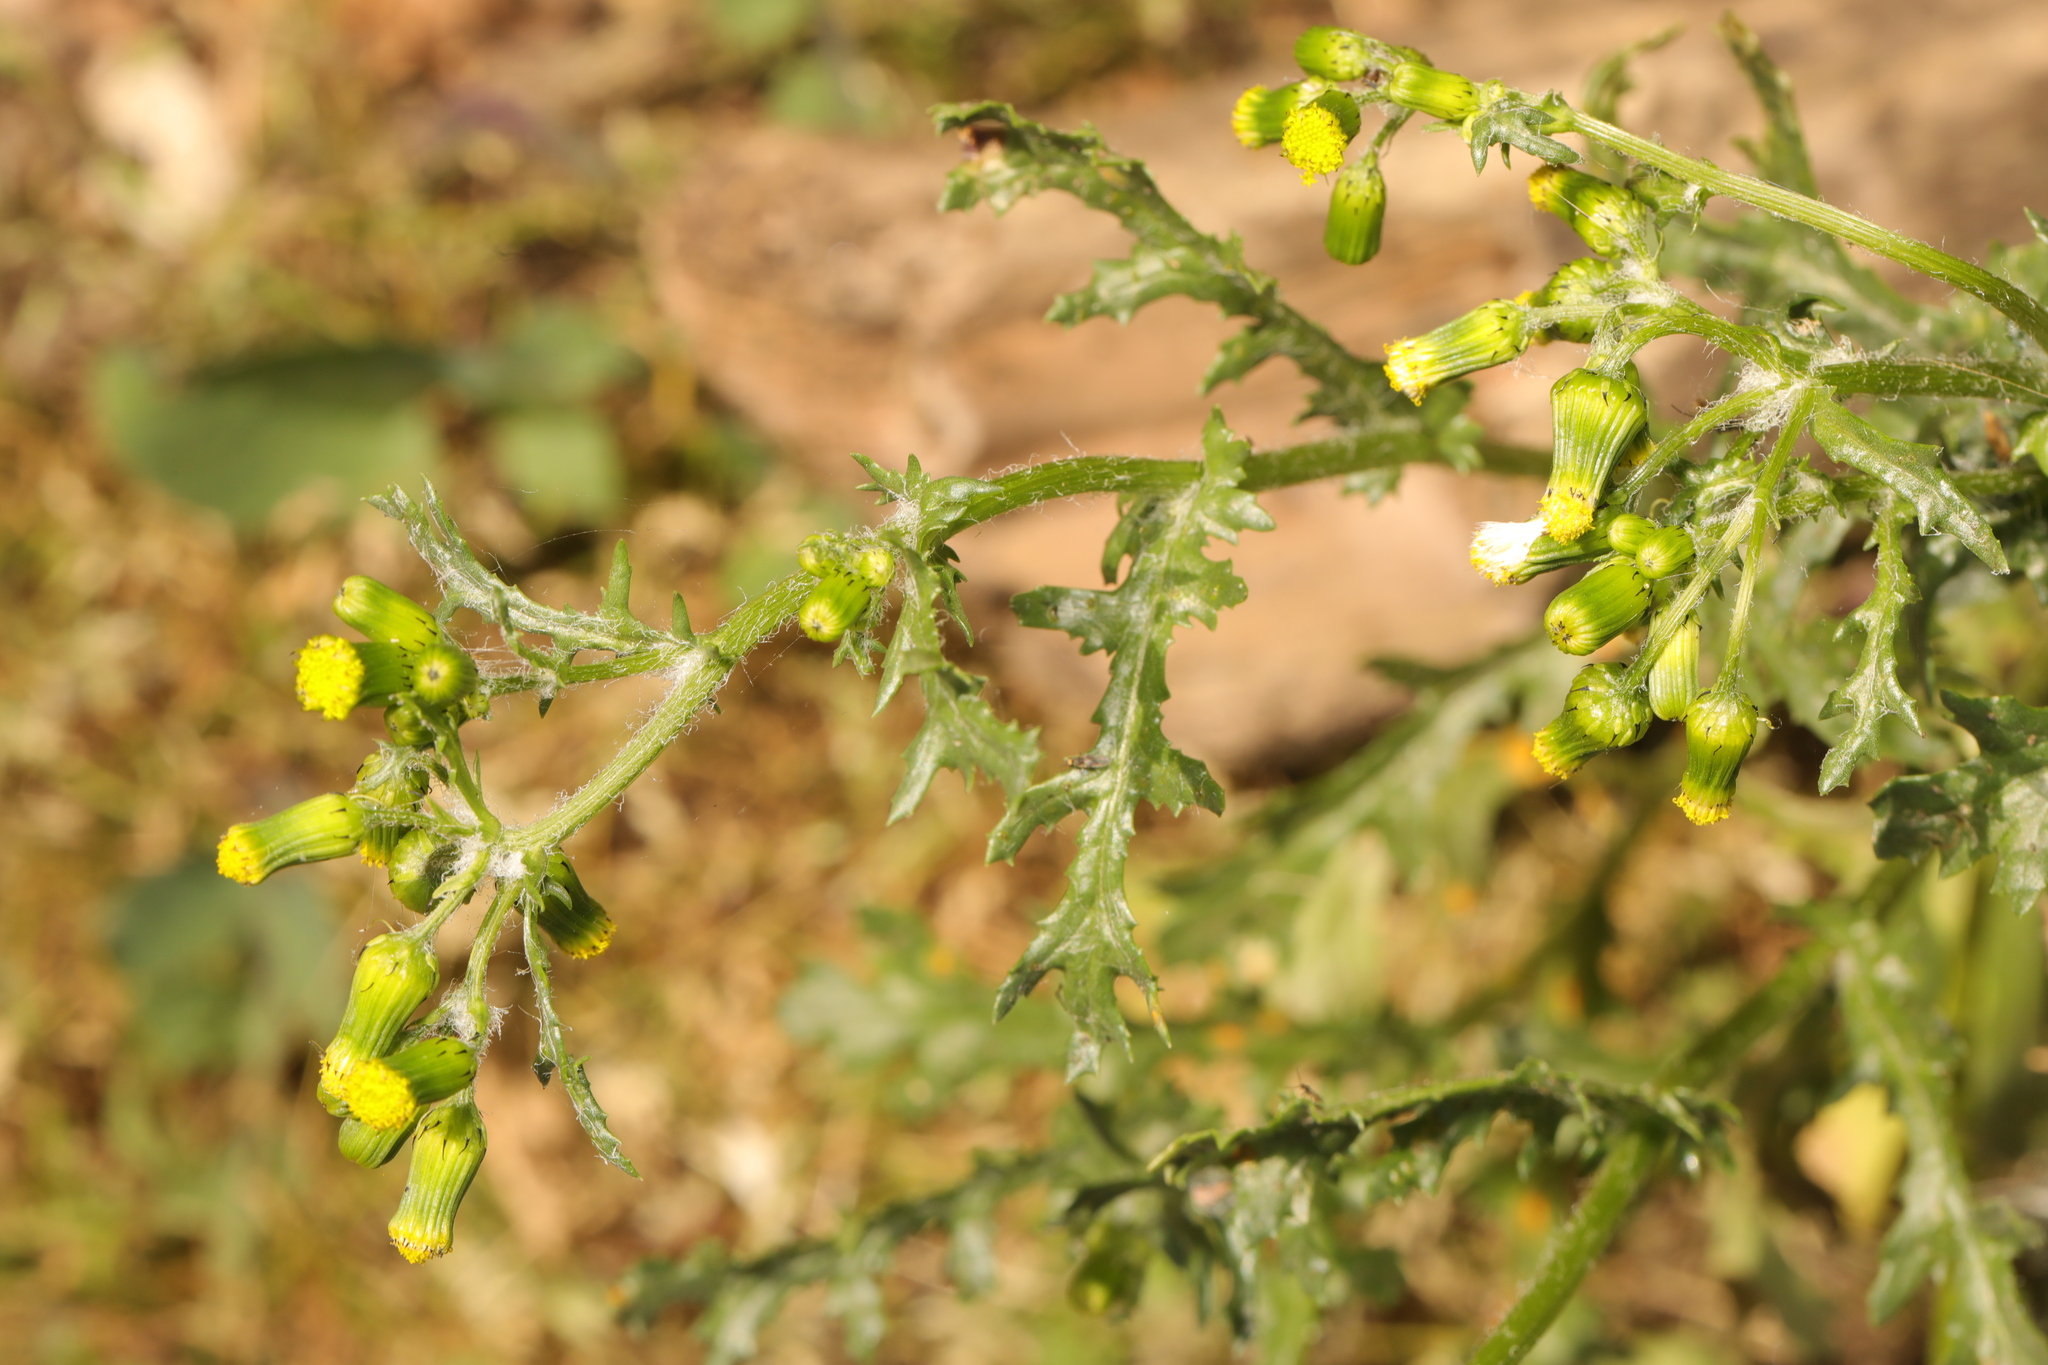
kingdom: Plantae
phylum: Tracheophyta
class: Magnoliopsida
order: Asterales
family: Asteraceae
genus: Senecio
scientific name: Senecio vulgaris
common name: Old-man-in-the-spring
